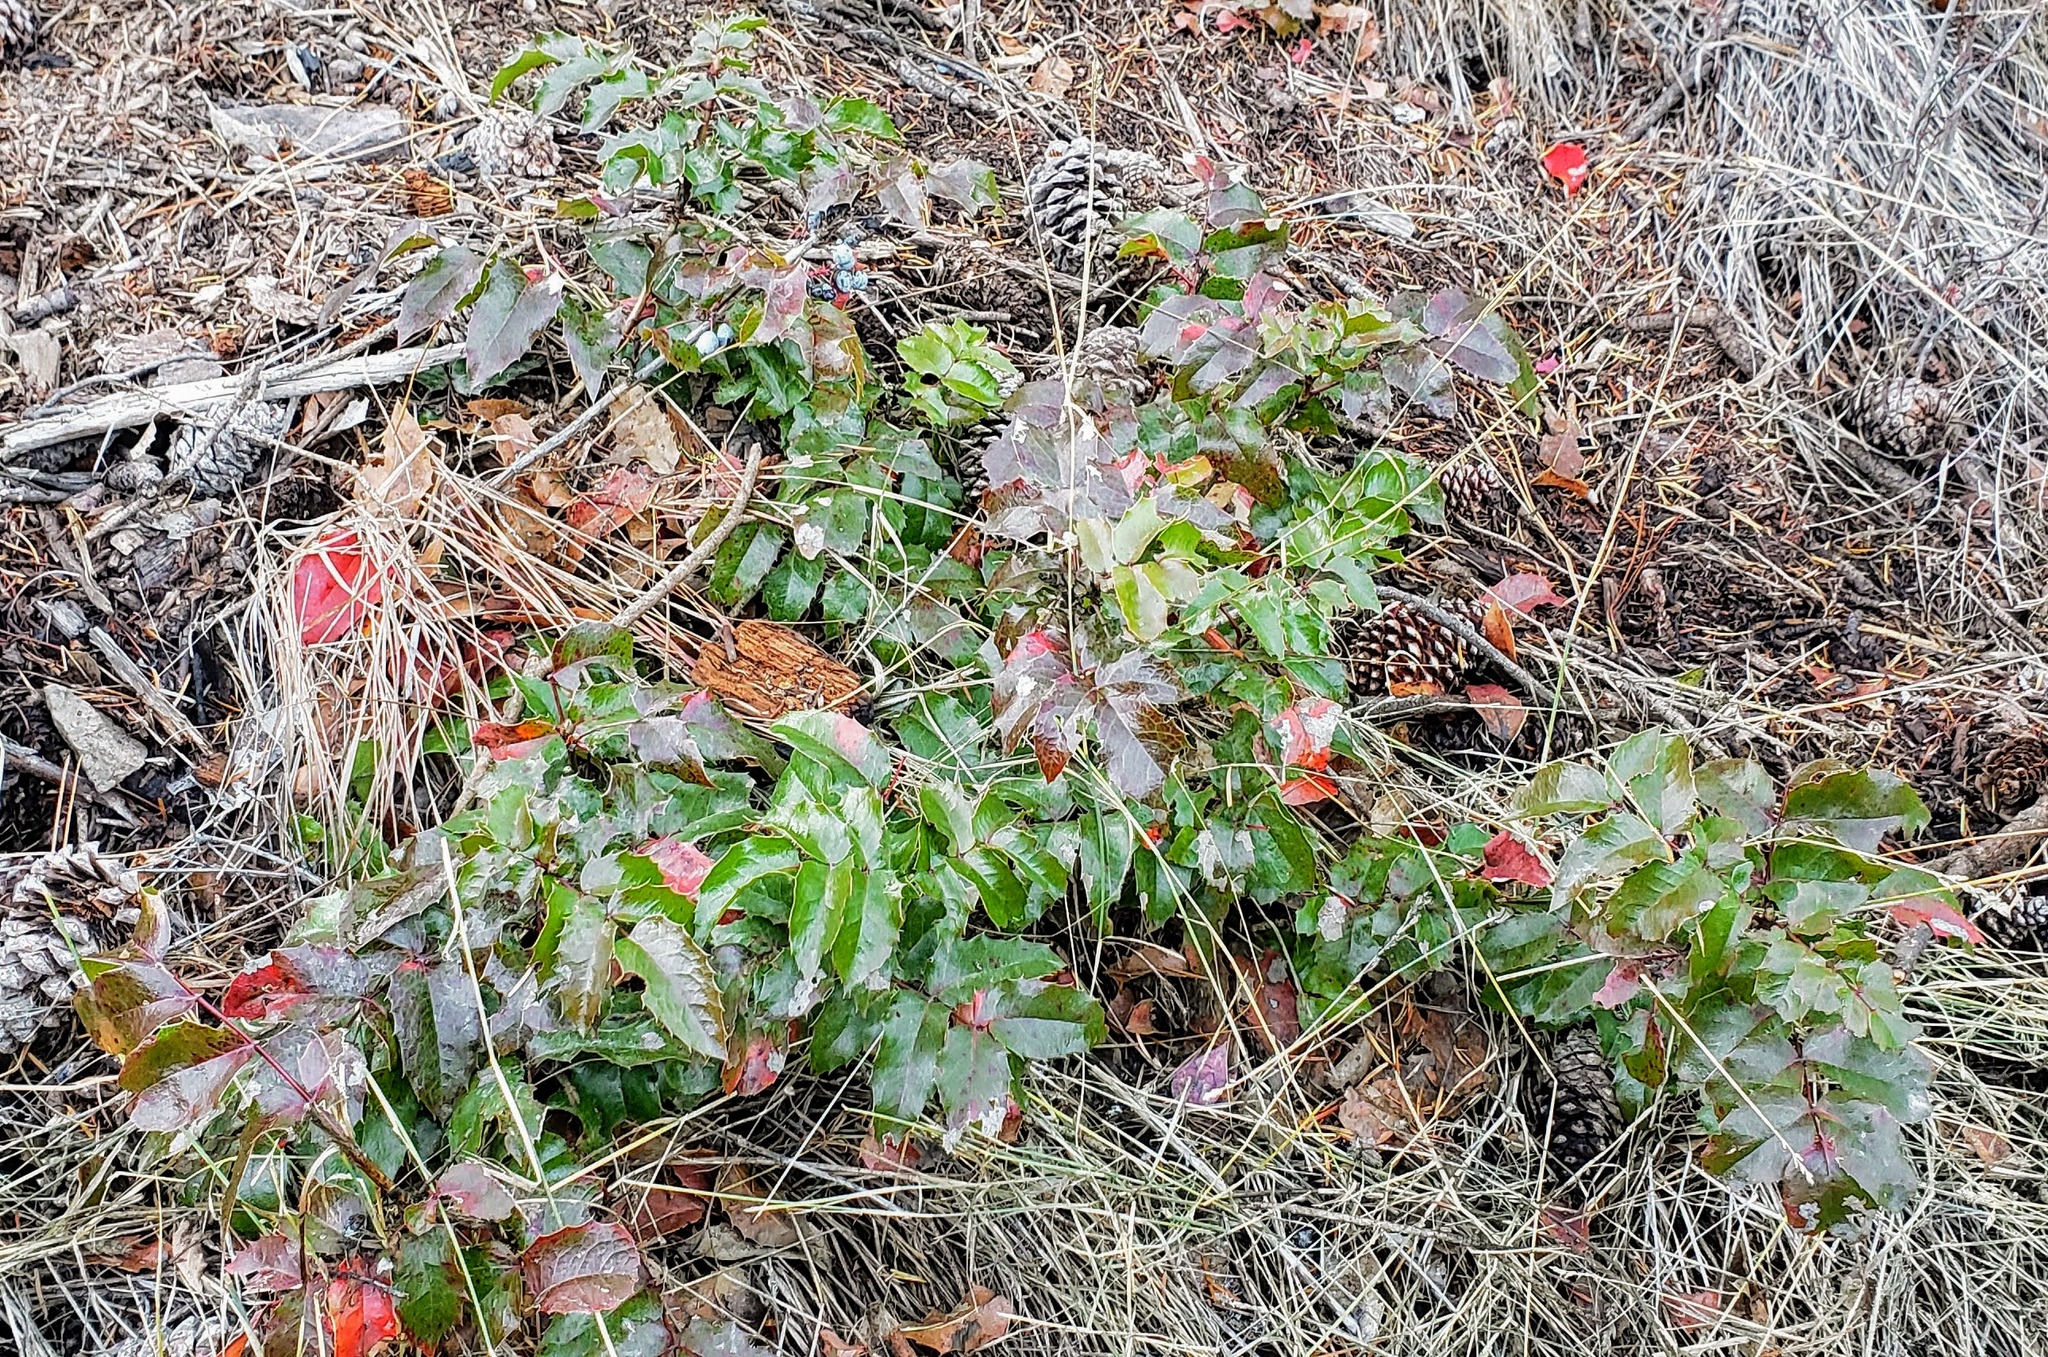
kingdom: Plantae
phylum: Tracheophyta
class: Magnoliopsida
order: Ranunculales
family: Berberidaceae
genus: Mahonia
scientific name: Mahonia aquifolium
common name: Oregon-grape
